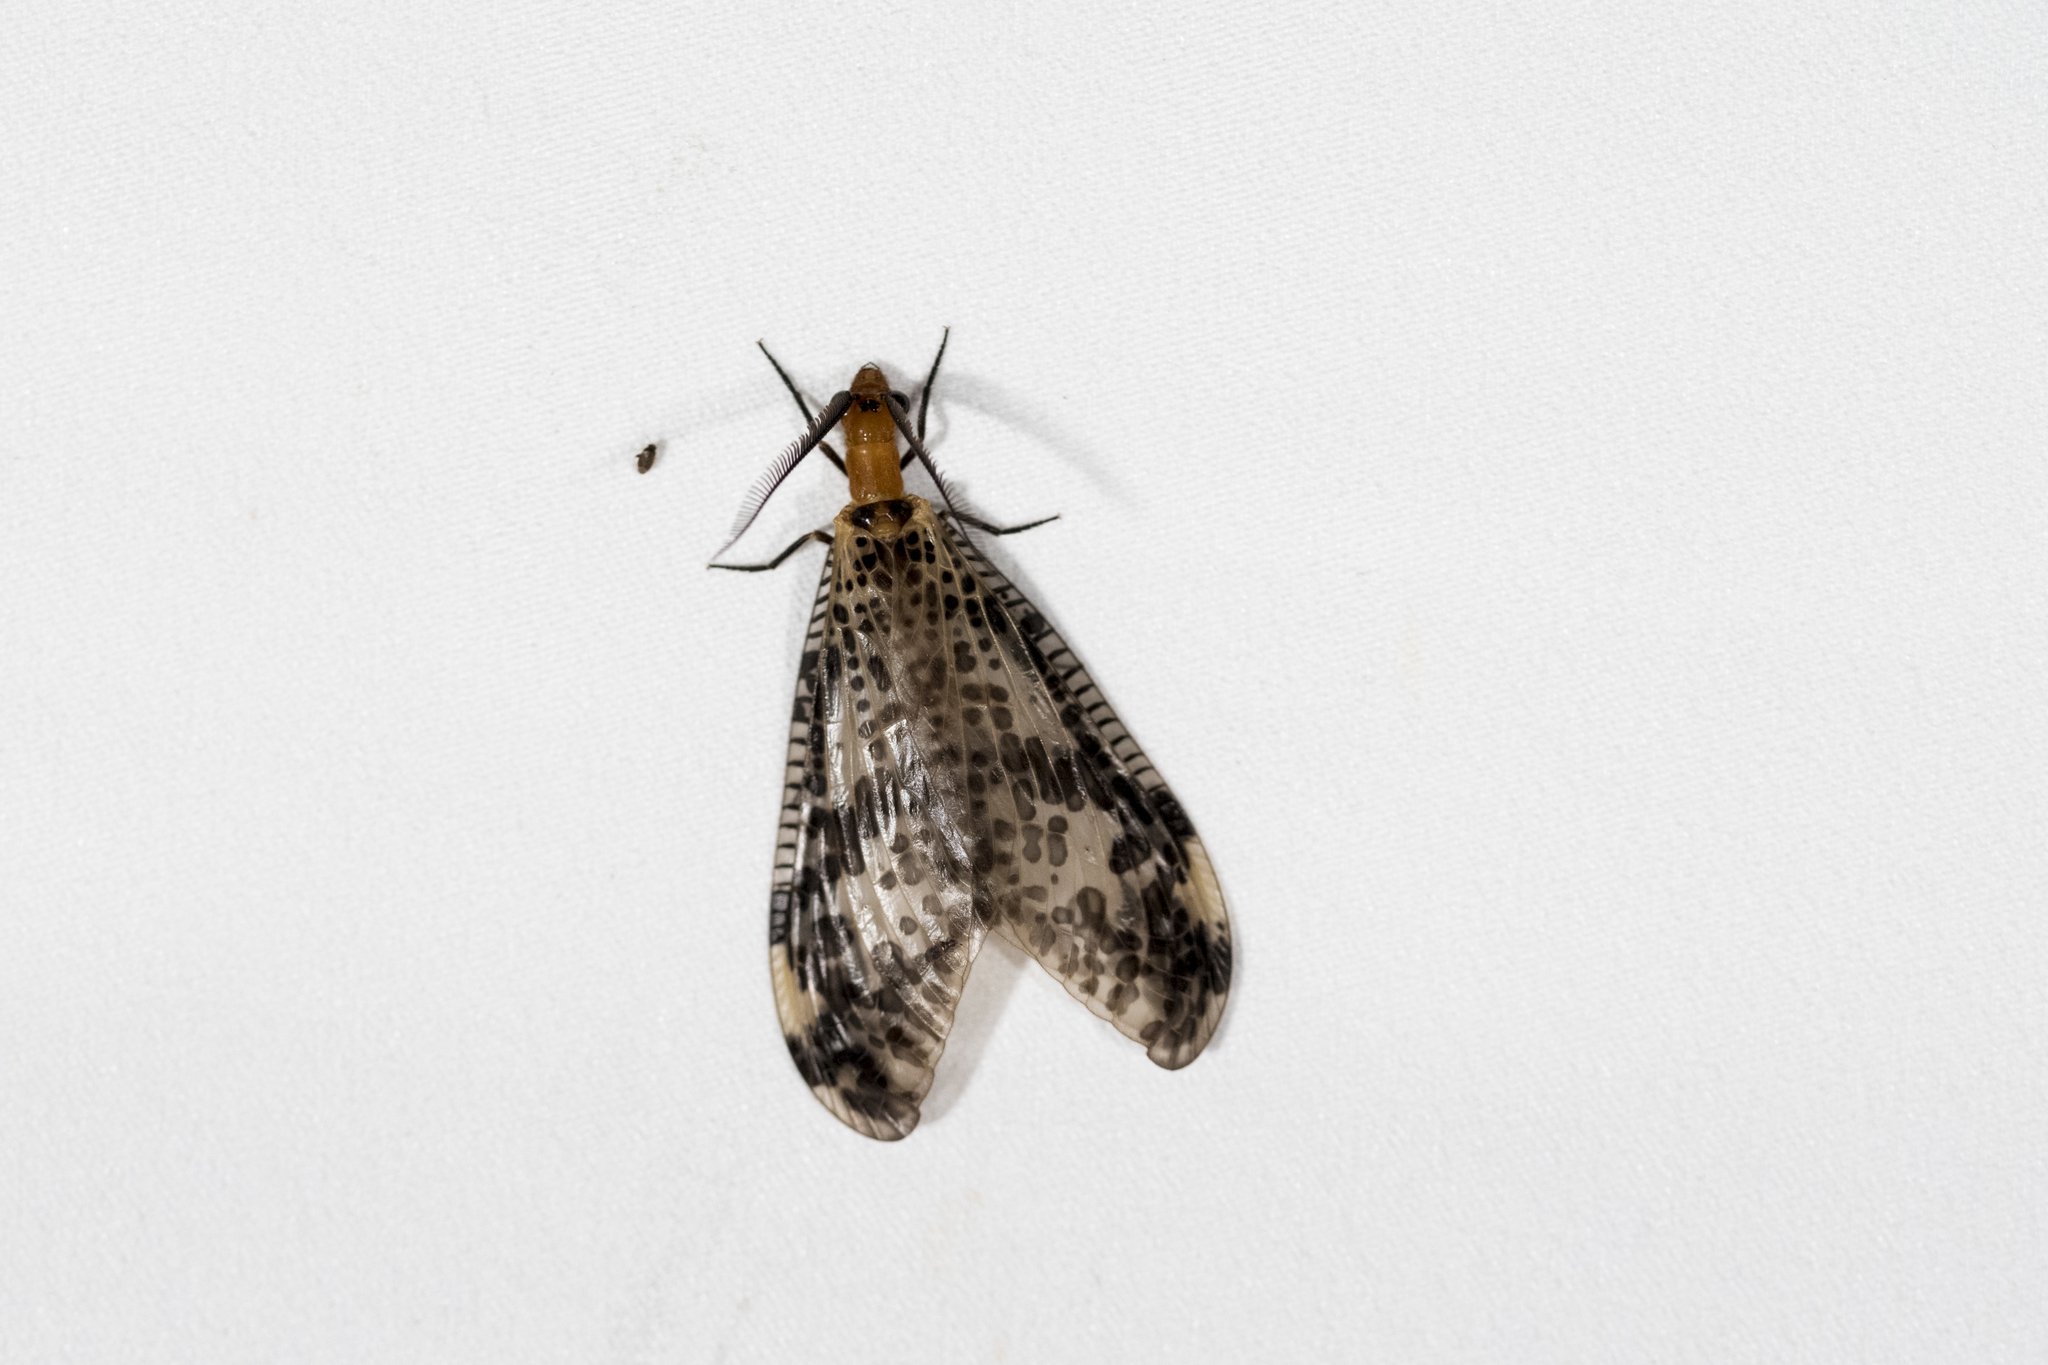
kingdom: Animalia
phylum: Arthropoda
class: Insecta
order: Megaloptera
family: Corydalidae
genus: Neochauliodes
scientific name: Neochauliodes formosanus
